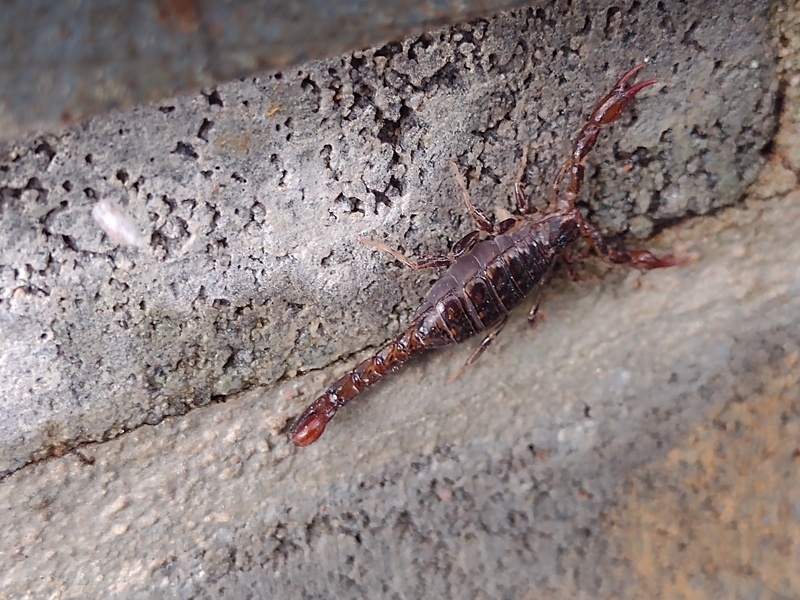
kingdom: Animalia
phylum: Arthropoda
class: Arachnida
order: Scorpiones
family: Bothriuridae
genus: Cercophonius
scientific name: Cercophonius squama
